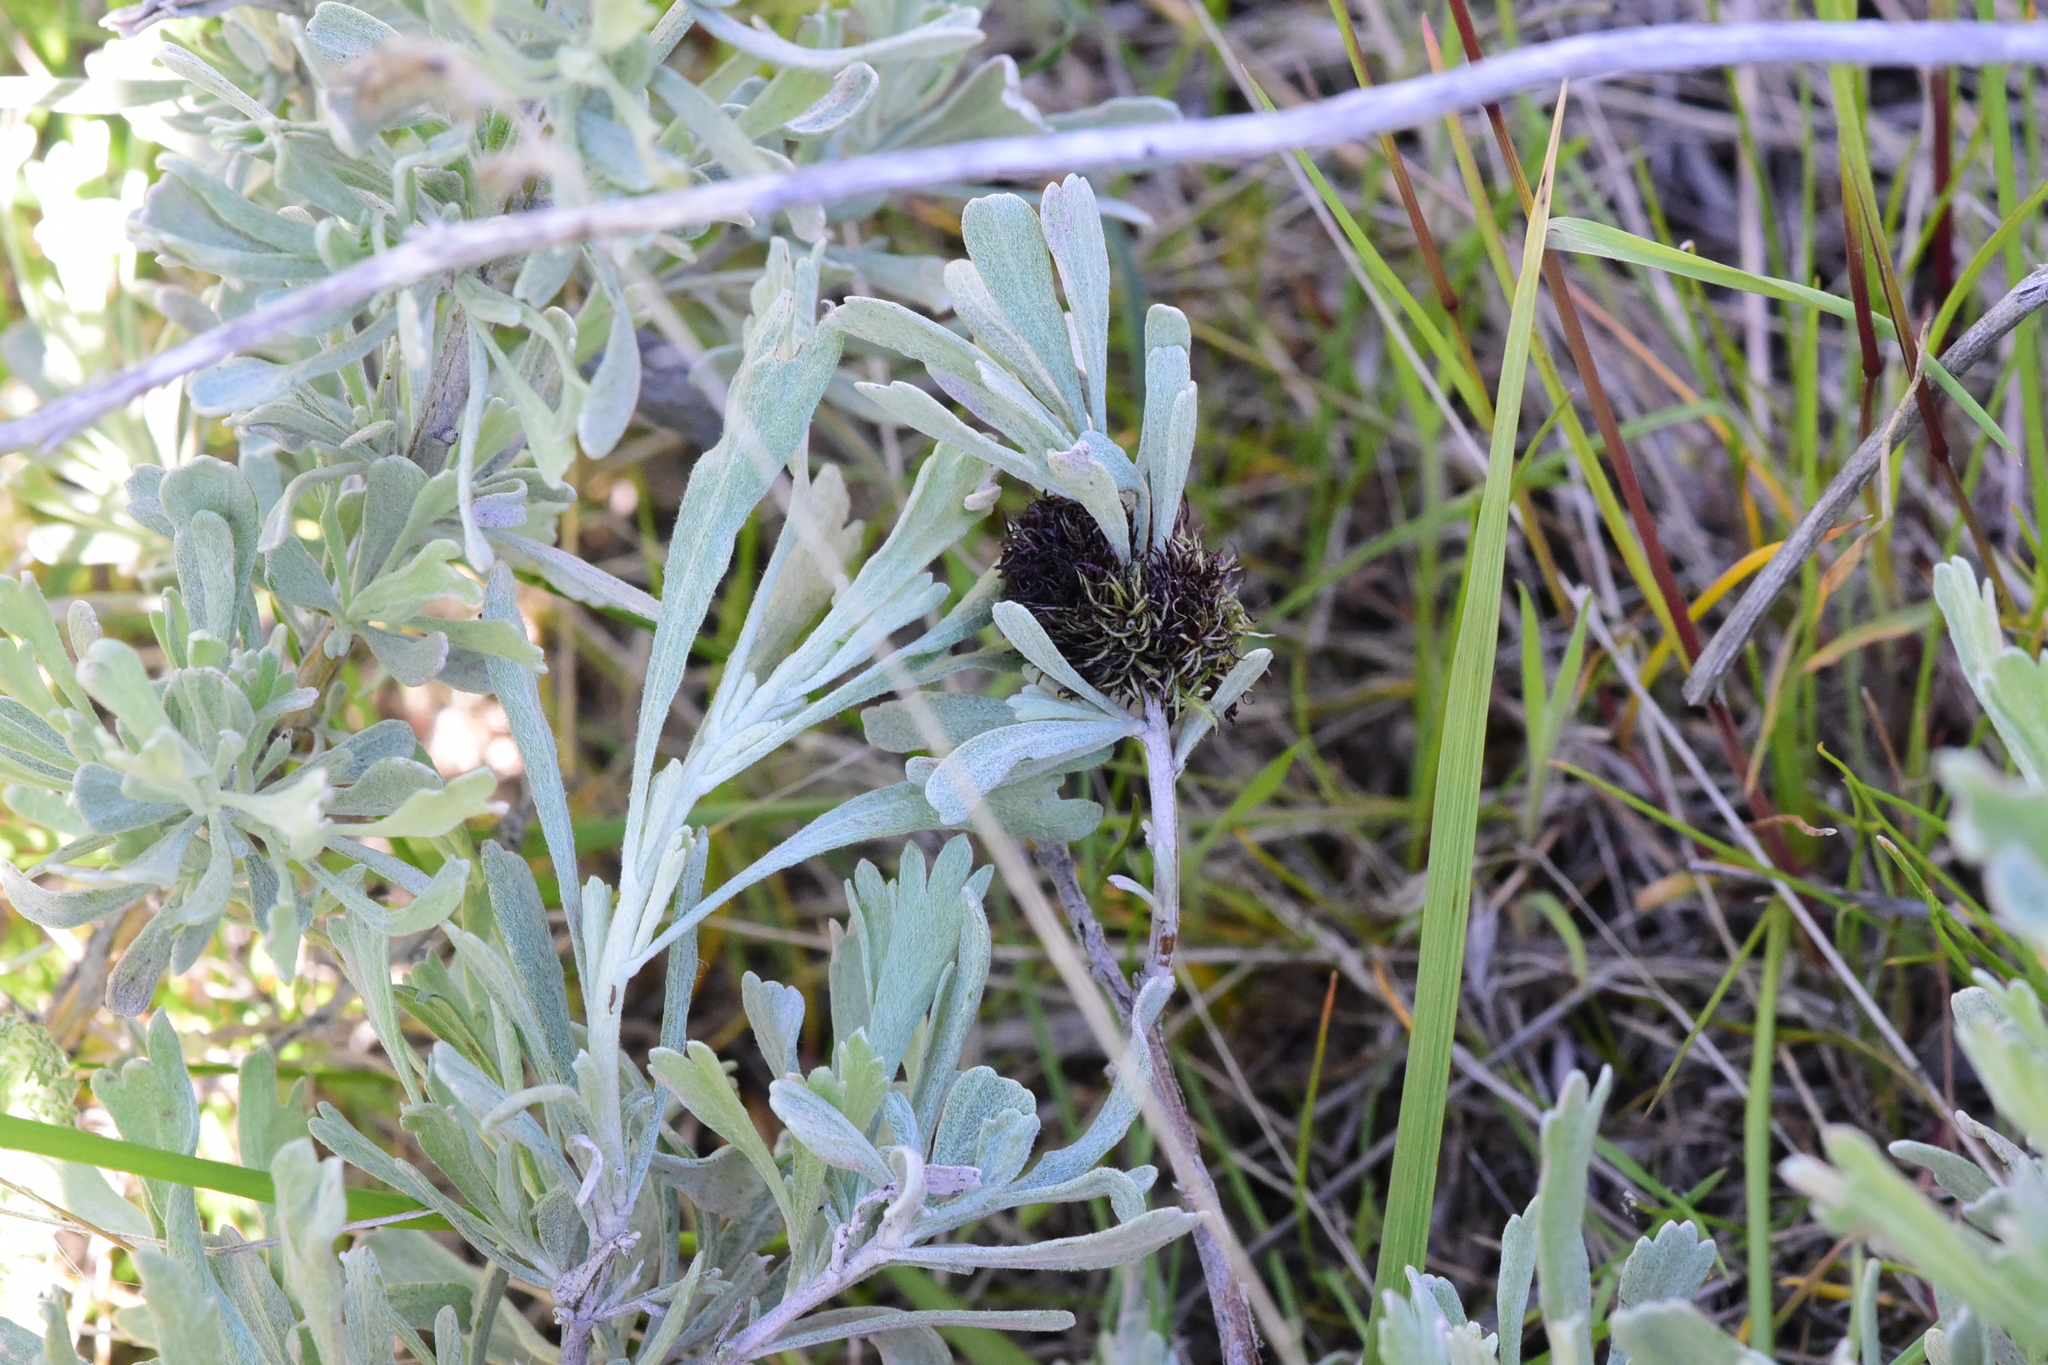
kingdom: Animalia
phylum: Arthropoda
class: Insecta
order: Diptera
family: Cecidomyiidae
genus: Rhopalomyia
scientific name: Rhopalomyia medusa
